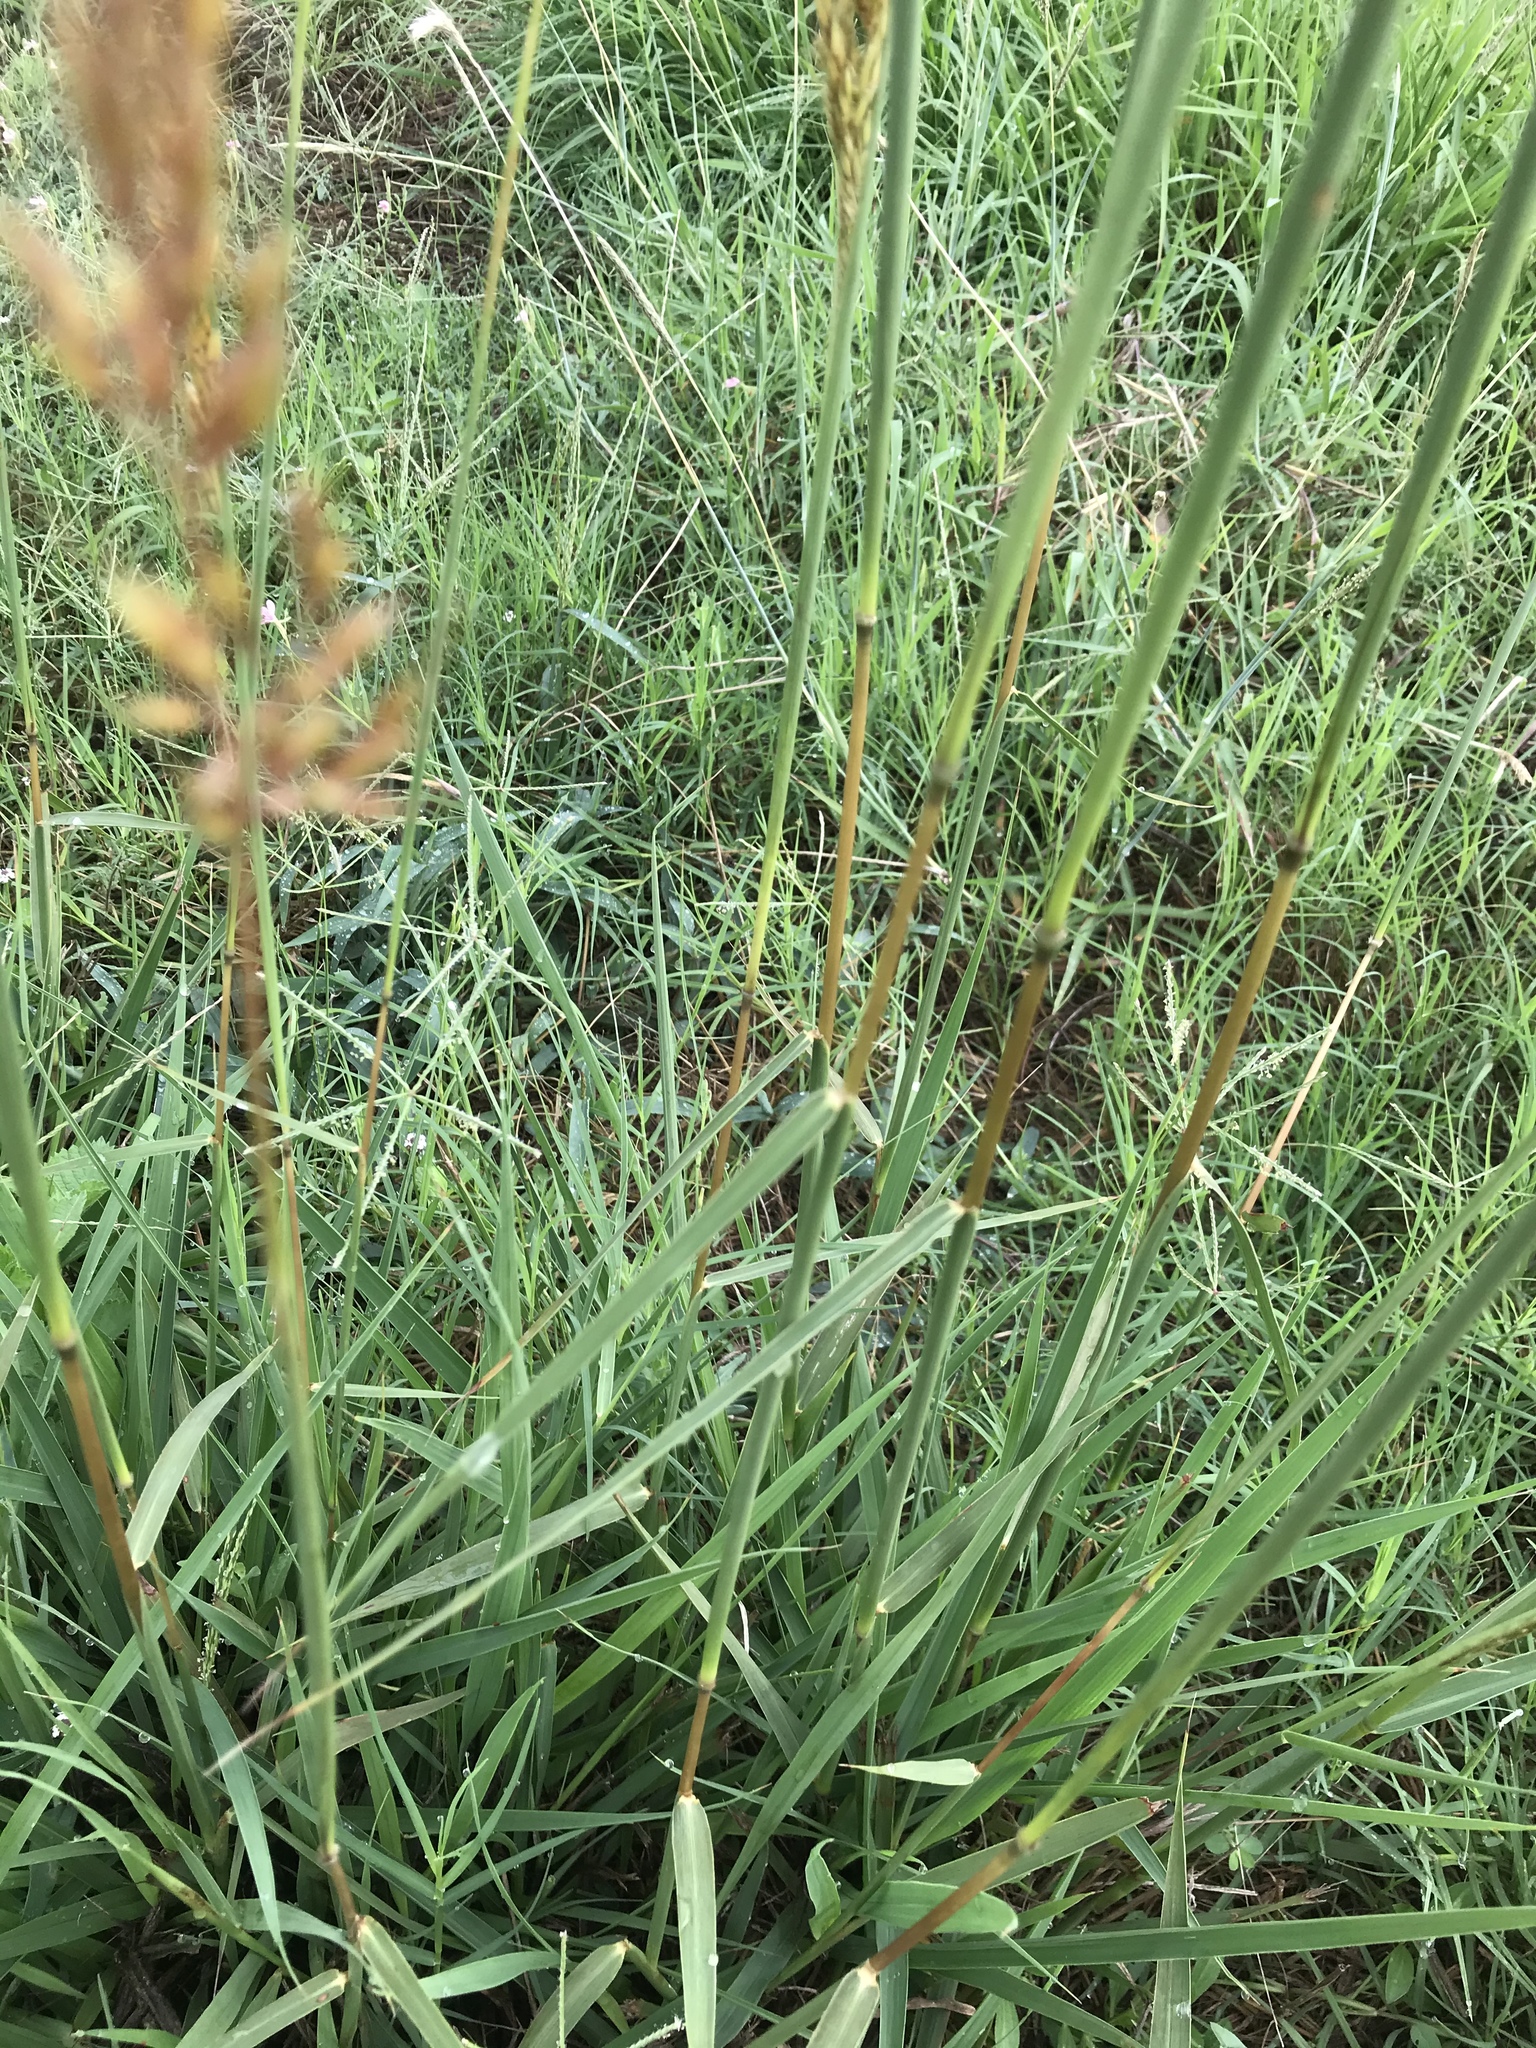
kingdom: Plantae
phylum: Tracheophyta
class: Liliopsida
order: Poales
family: Poaceae
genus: Sorghastrum
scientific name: Sorghastrum nutans
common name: Indian grass
